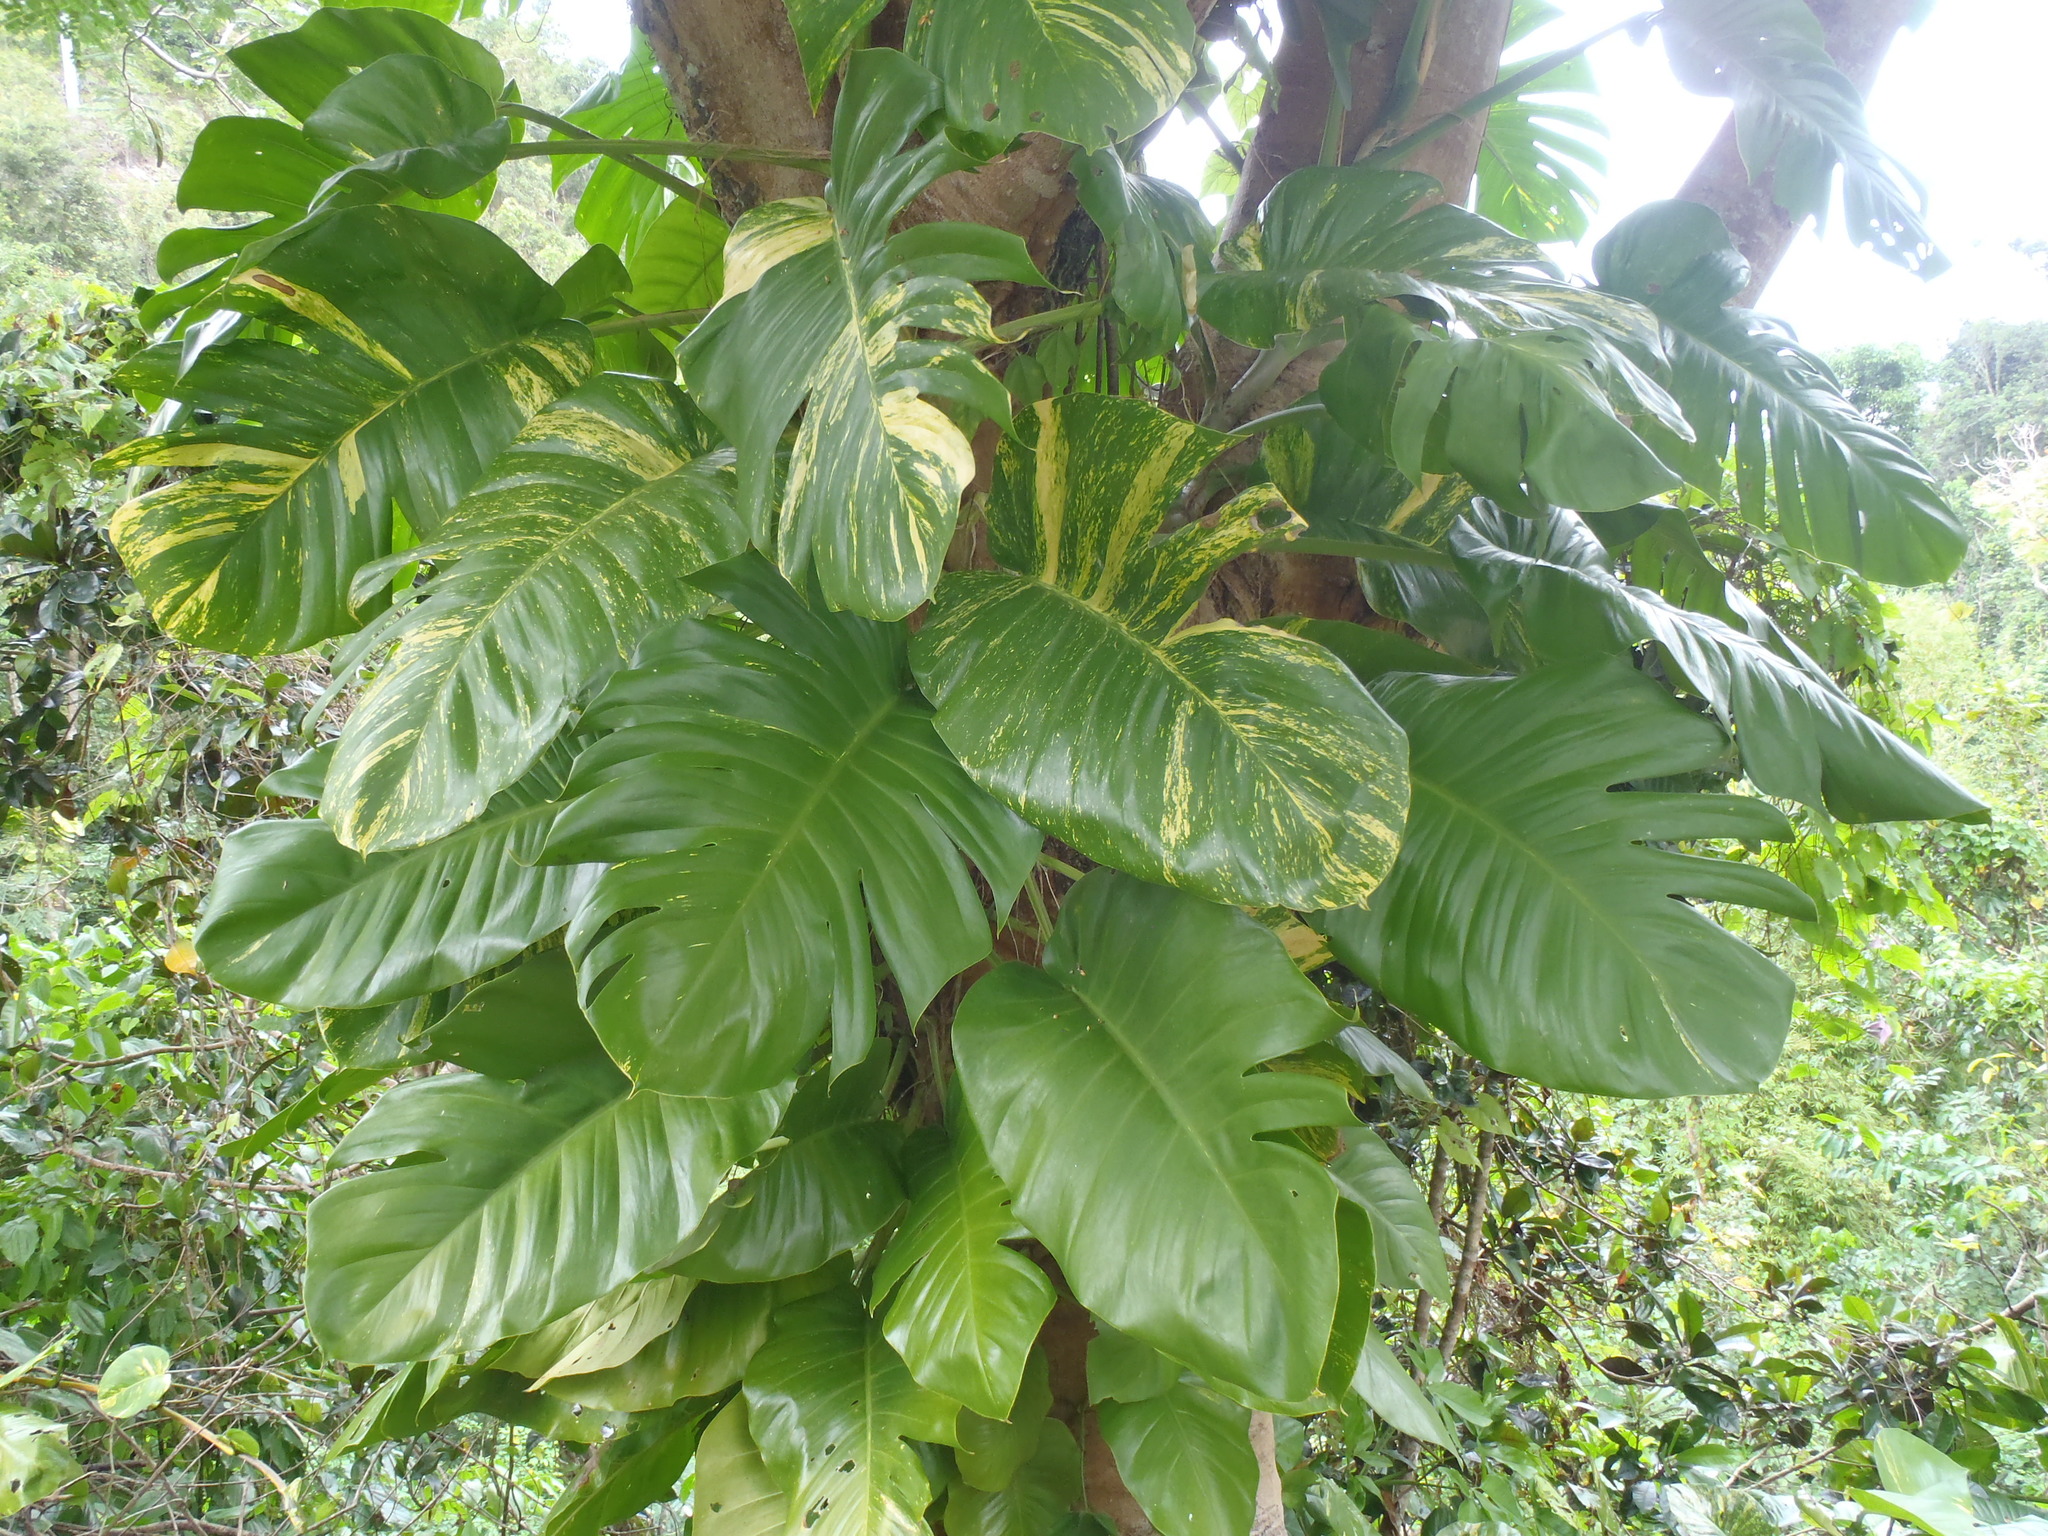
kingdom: Plantae
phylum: Tracheophyta
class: Liliopsida
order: Alismatales
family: Araceae
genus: Epipremnum
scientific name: Epipremnum aureum
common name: Golden hunter's-robe
